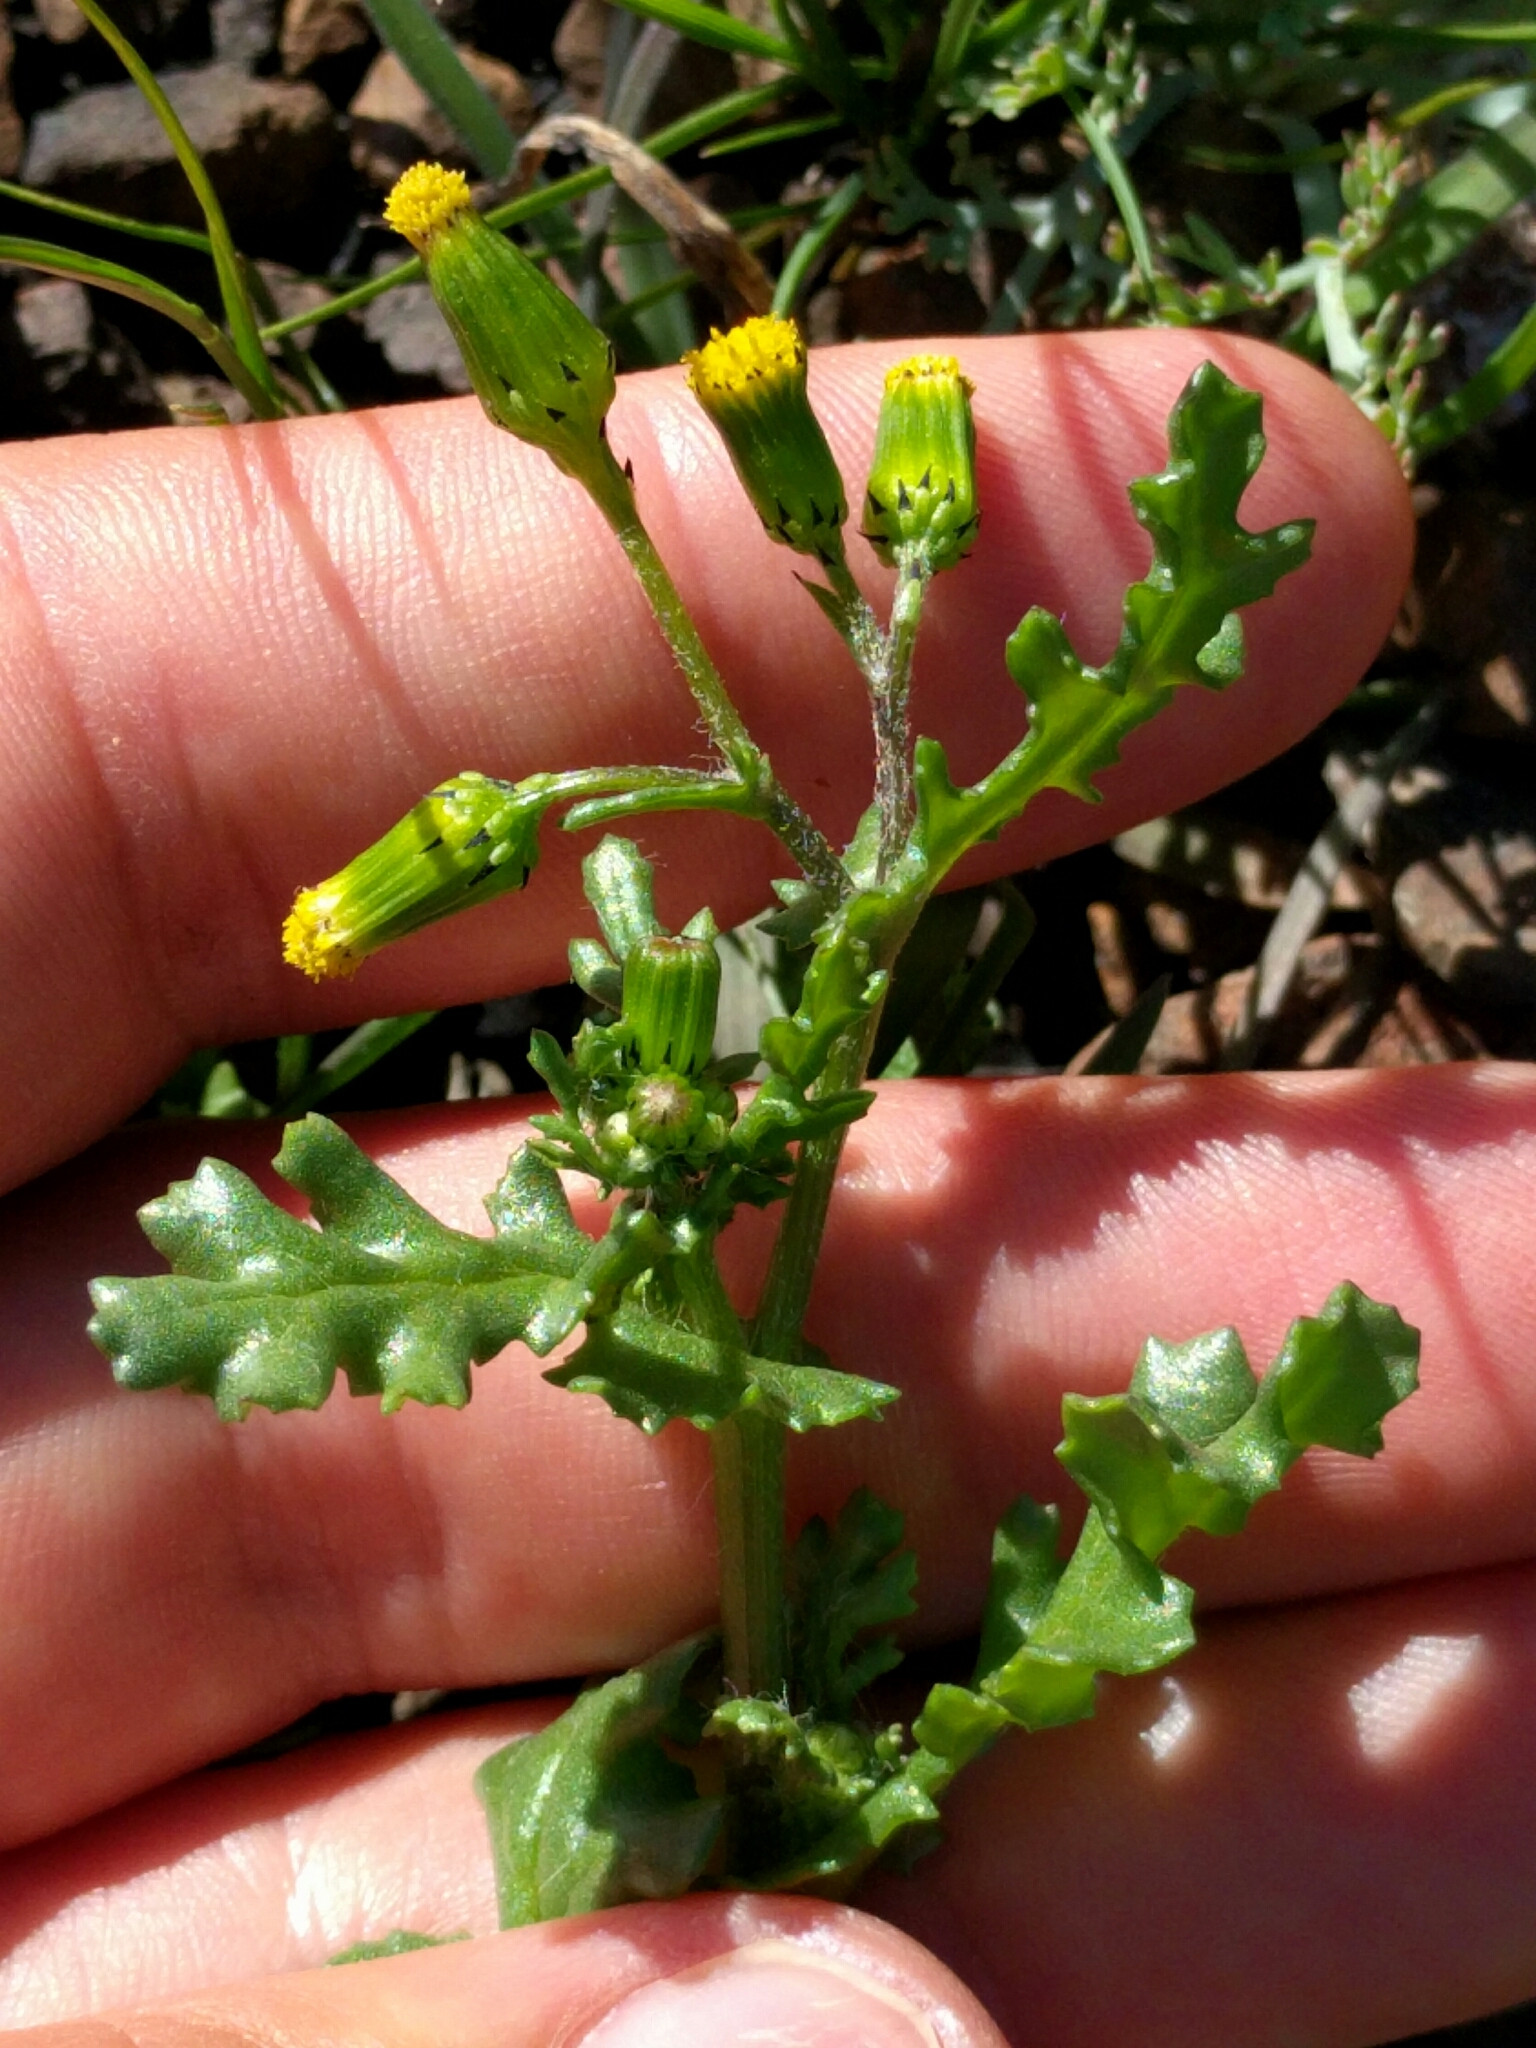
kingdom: Plantae
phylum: Tracheophyta
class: Magnoliopsida
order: Asterales
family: Asteraceae
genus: Senecio
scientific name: Senecio vulgaris
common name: Old-man-in-the-spring
